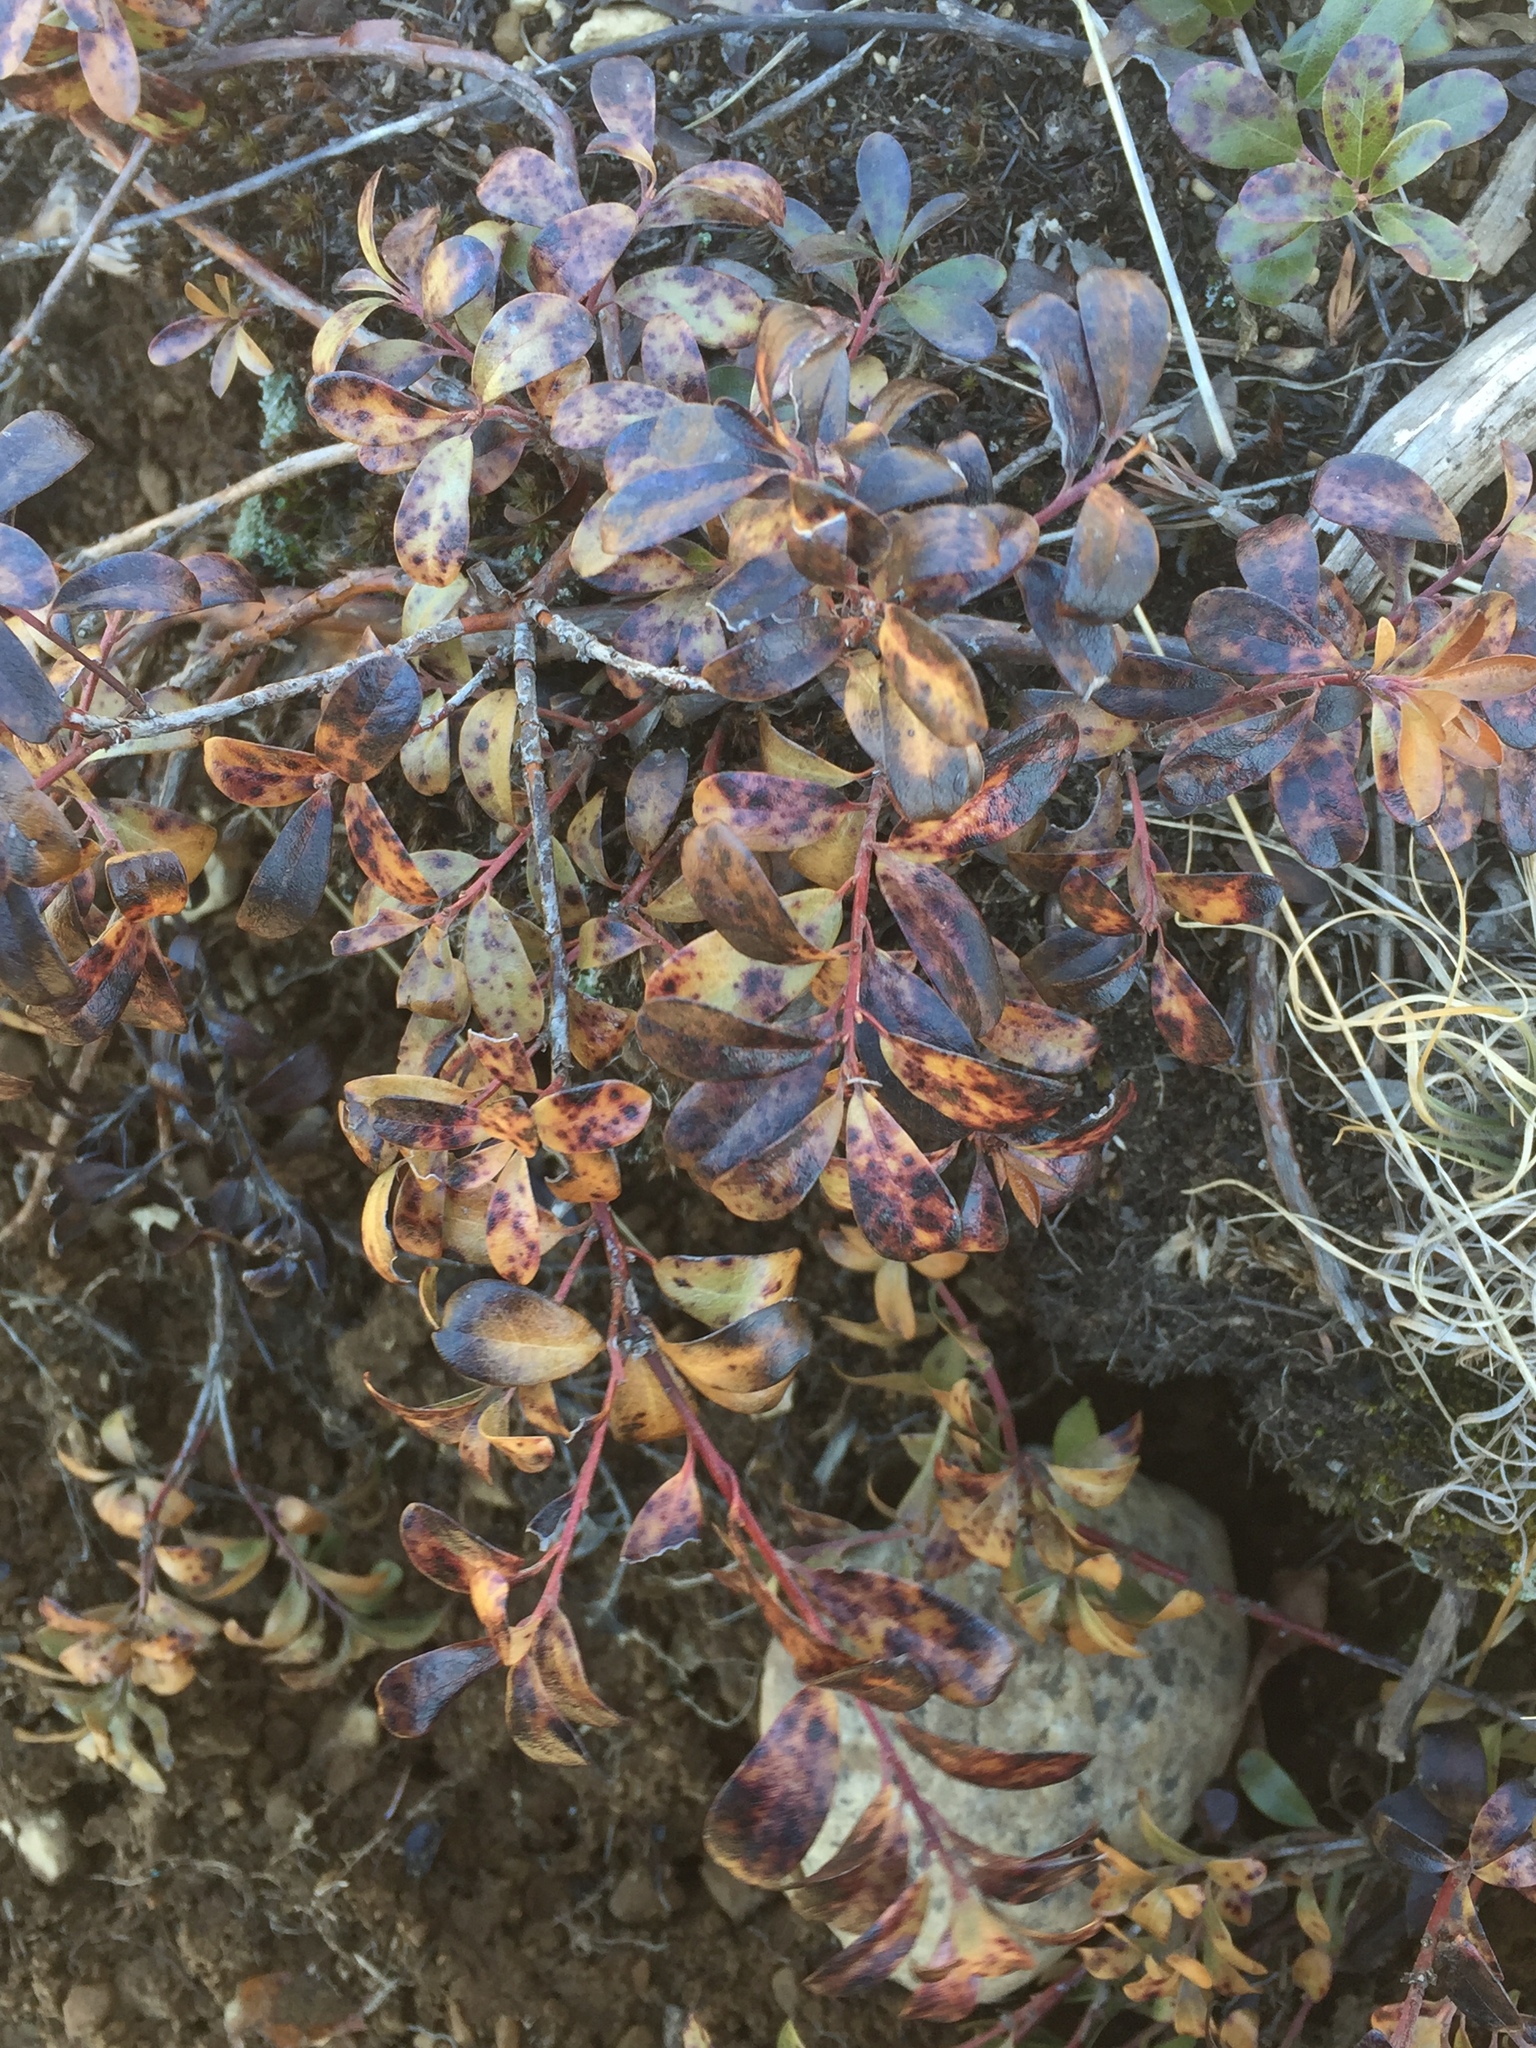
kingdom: Plantae
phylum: Tracheophyta
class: Magnoliopsida
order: Ericales
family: Ericaceae
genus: Arctostaphylos
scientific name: Arctostaphylos uva-ursi
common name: Bearberry
